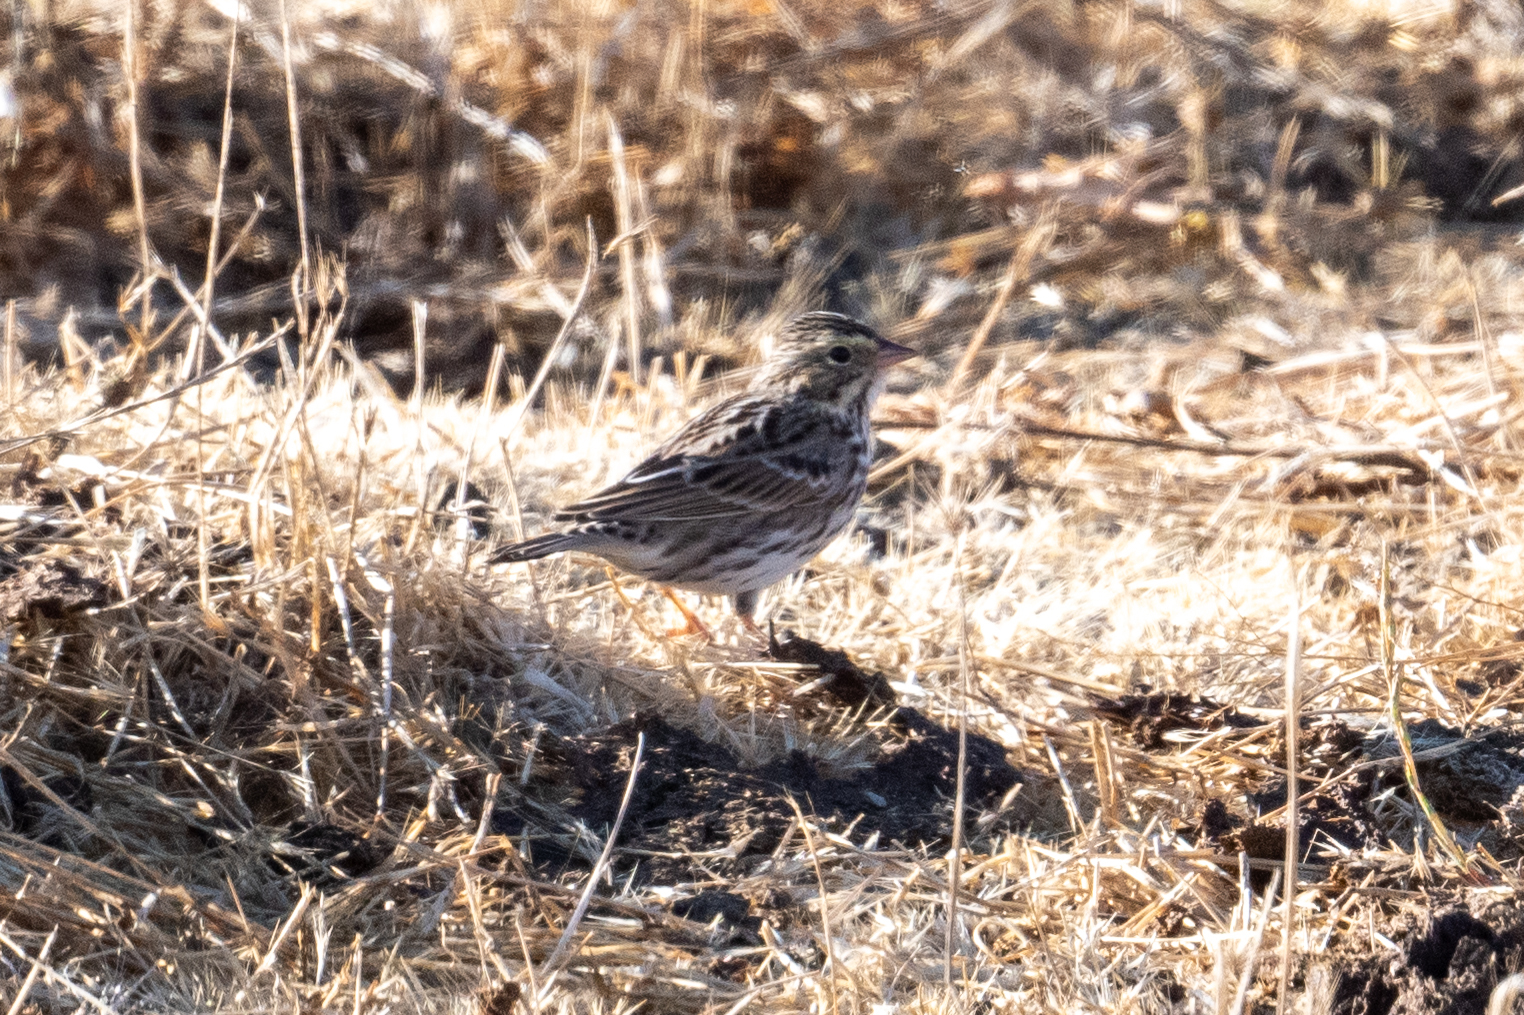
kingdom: Animalia
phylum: Chordata
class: Aves
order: Passeriformes
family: Passerellidae
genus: Passerculus
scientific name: Passerculus sandwichensis
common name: Savannah sparrow
